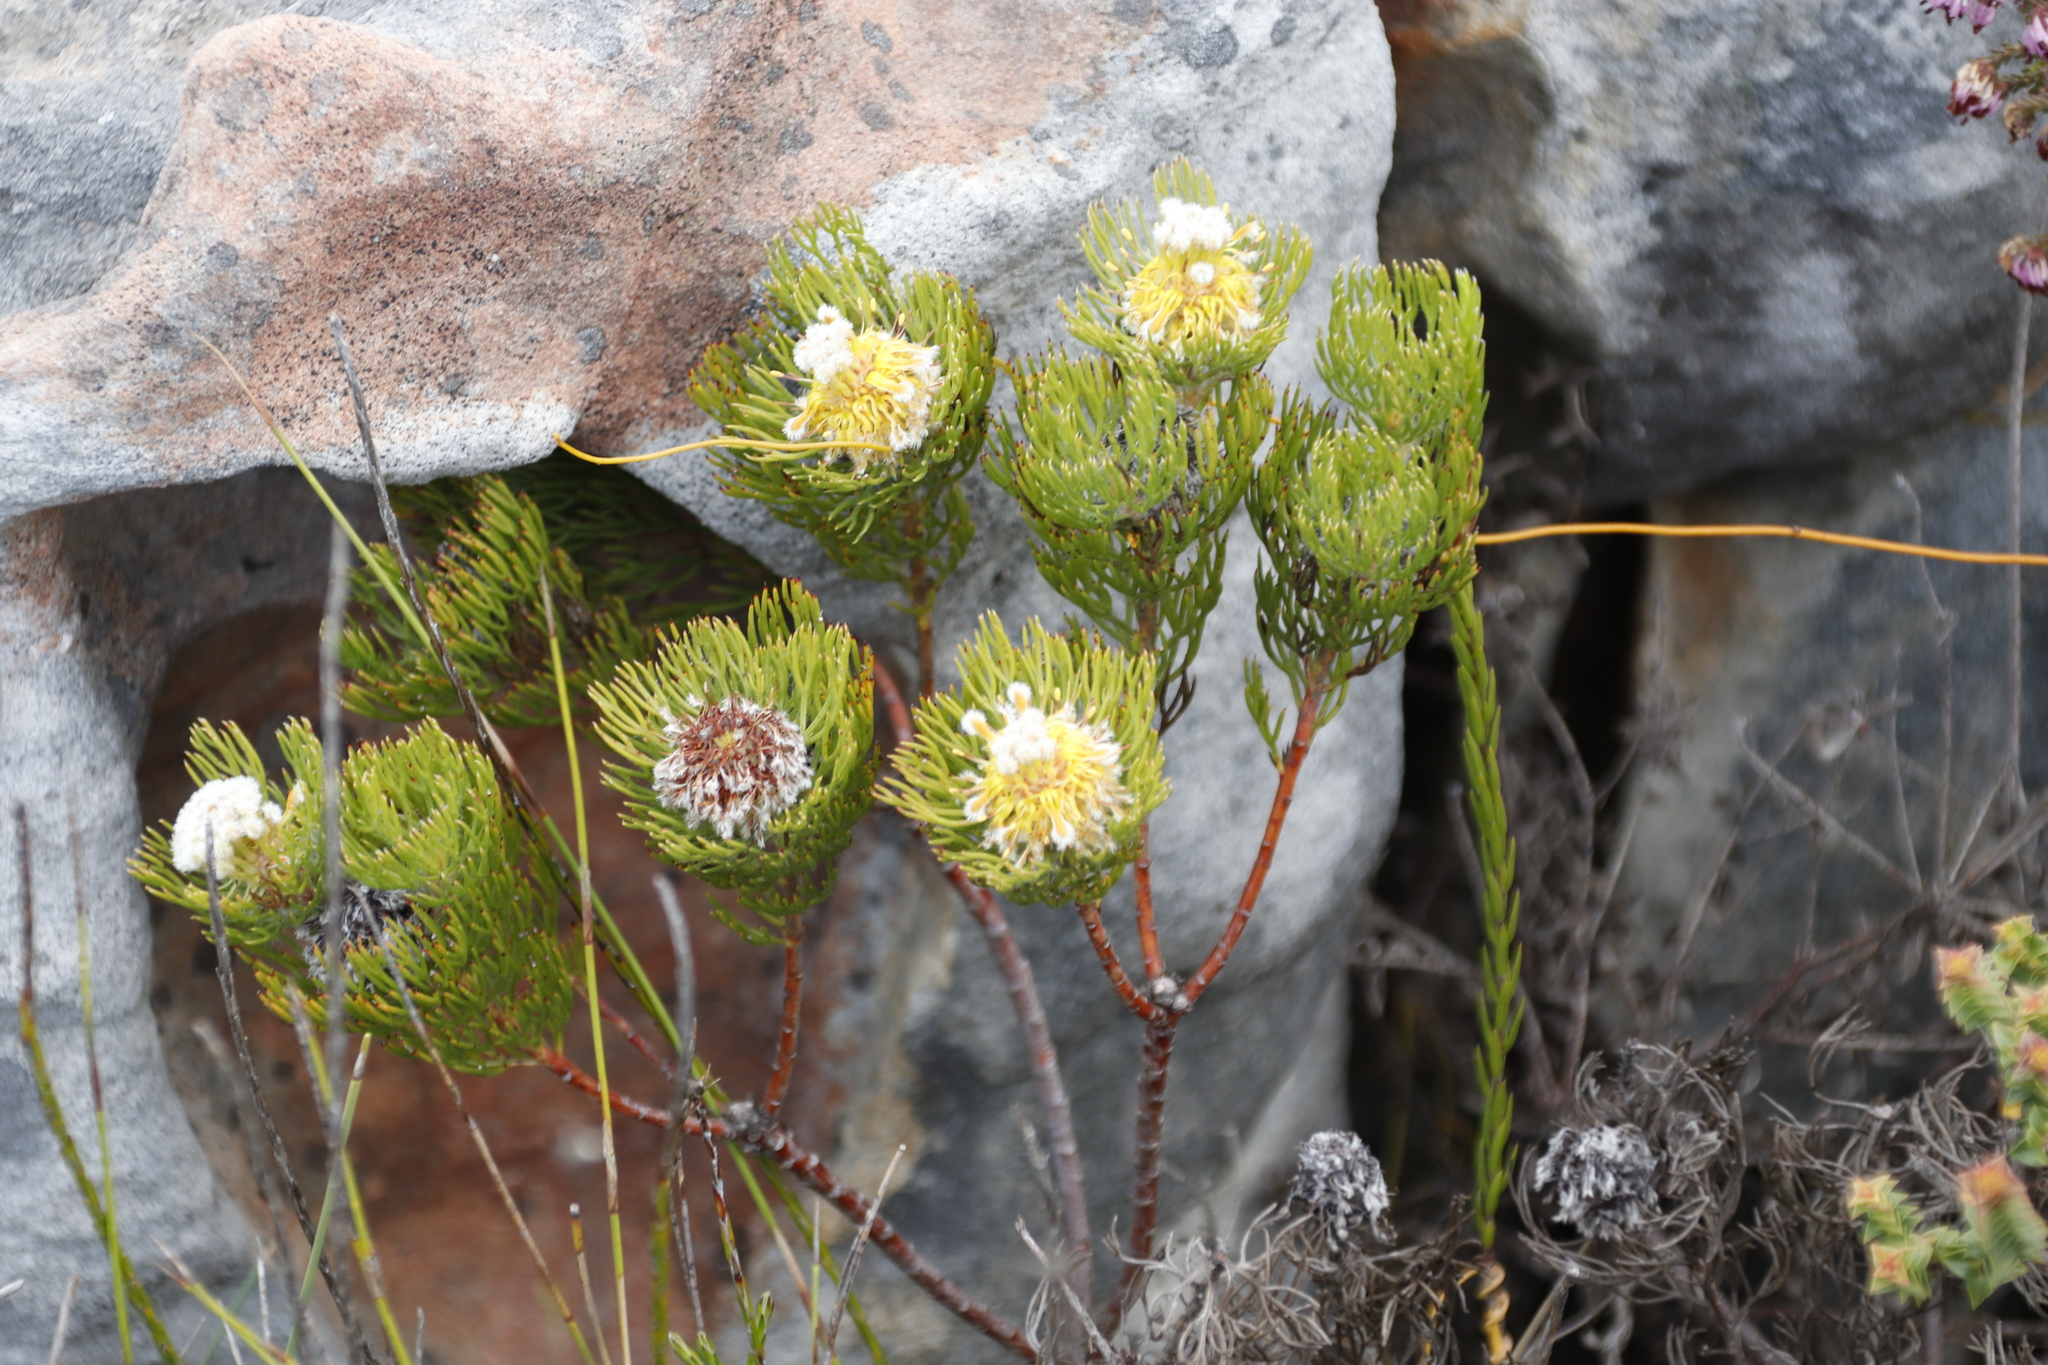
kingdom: Plantae
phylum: Tracheophyta
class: Magnoliopsida
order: Proteales
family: Proteaceae
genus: Serruria
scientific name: Serruria villosa
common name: Golden spiderhead
